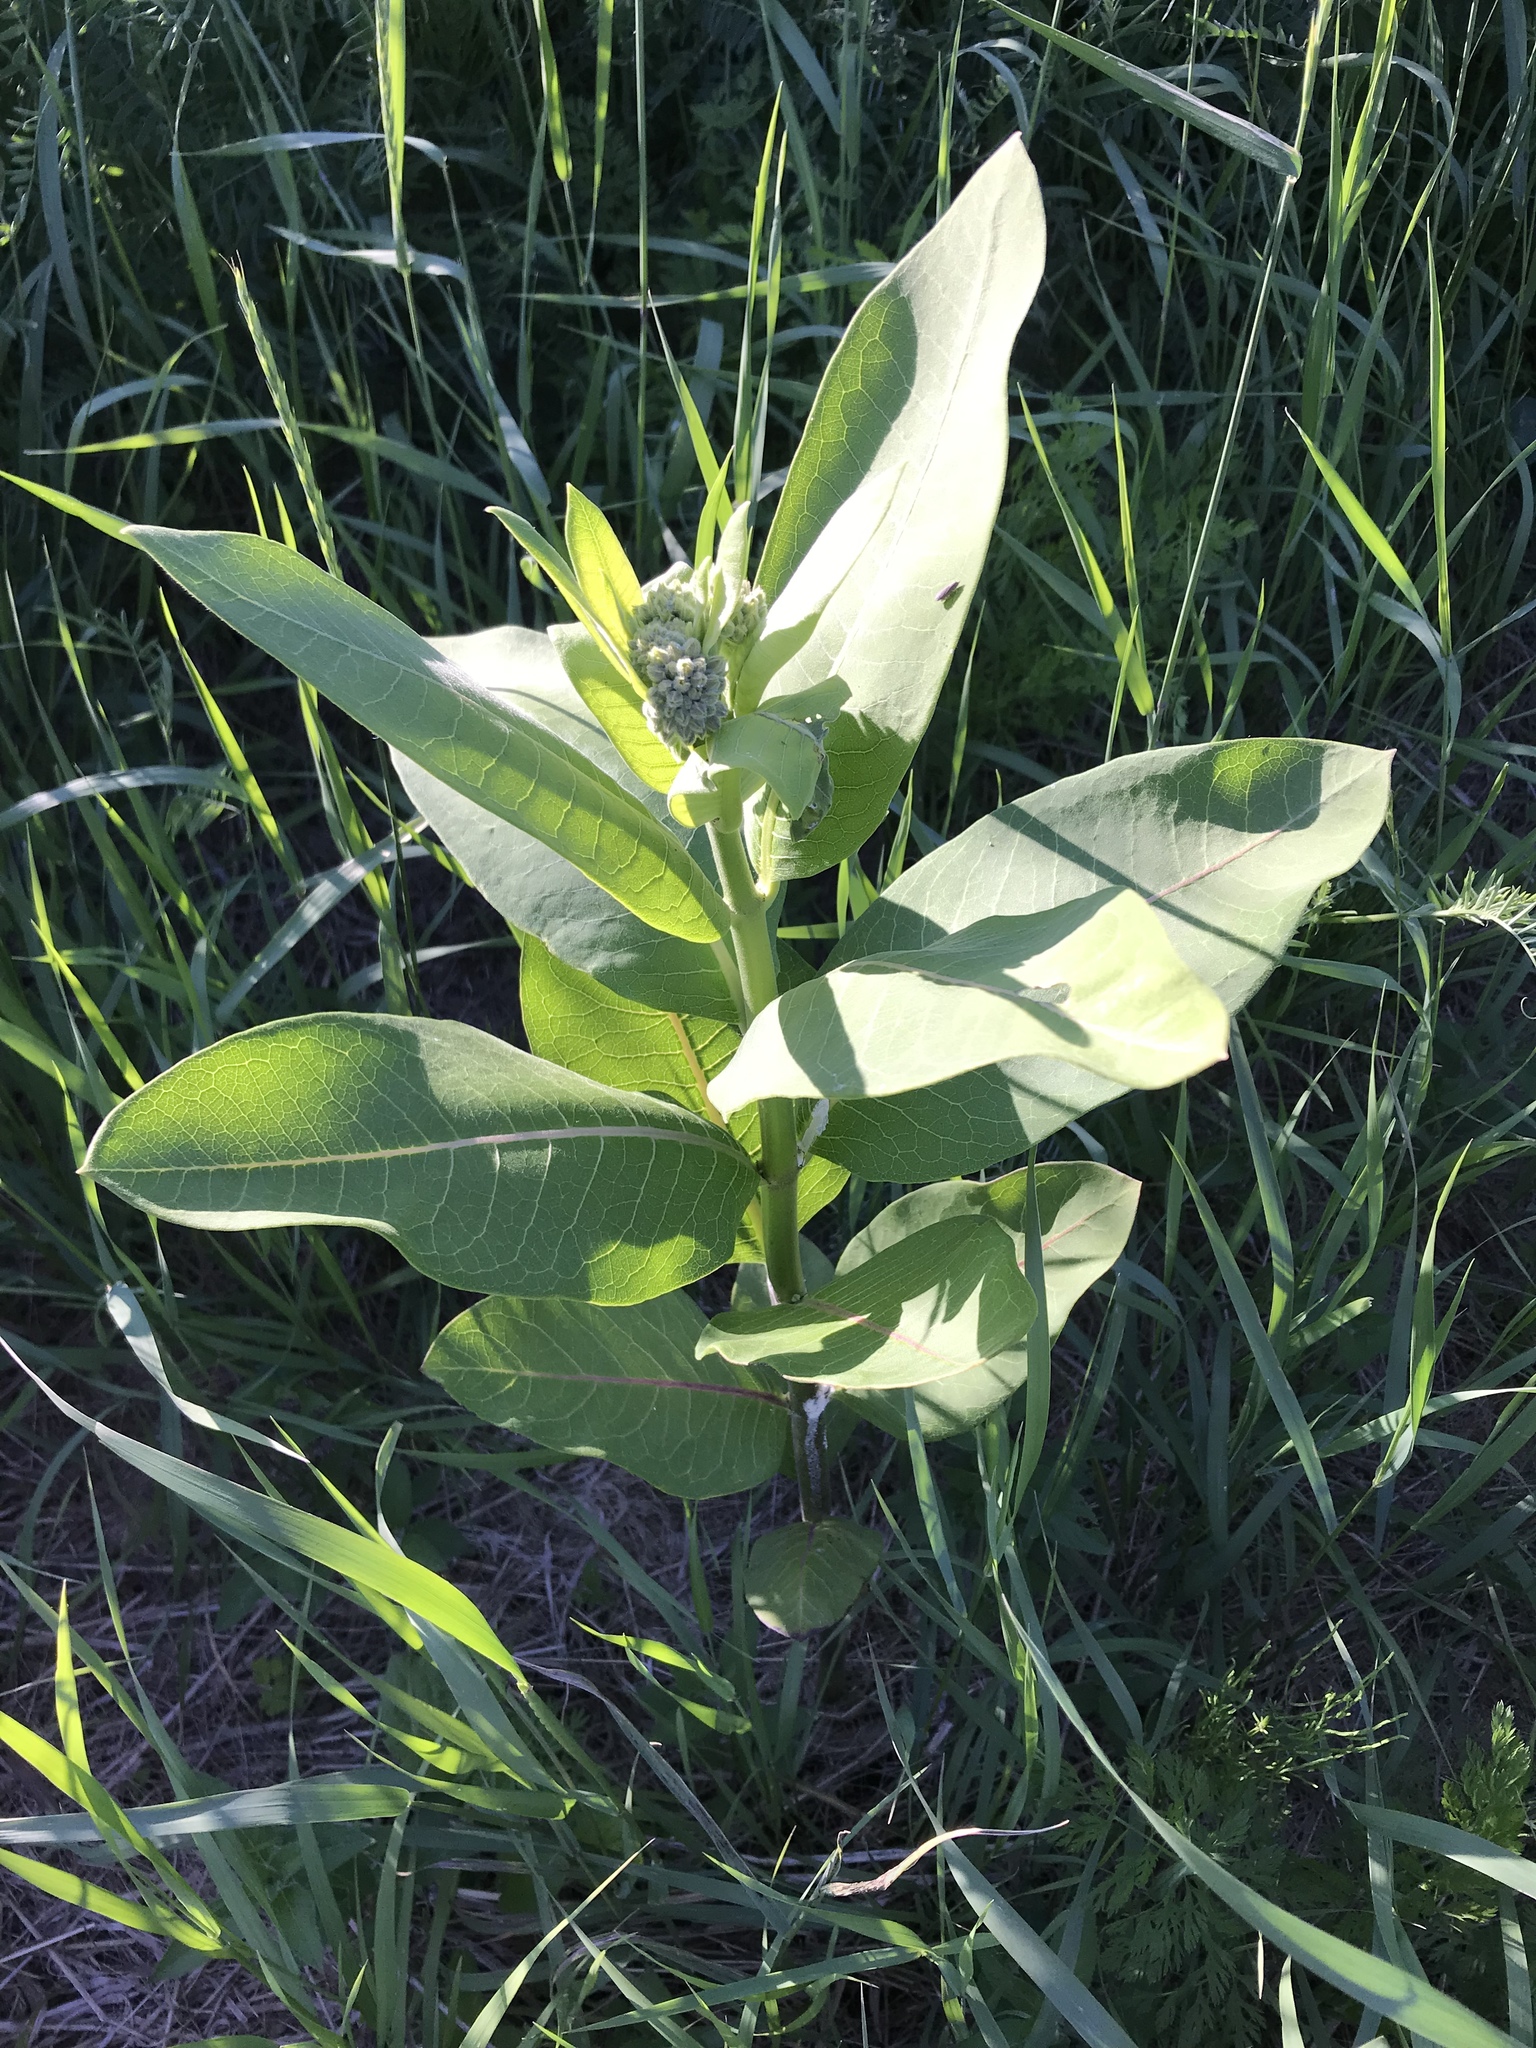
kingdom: Plantae
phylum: Tracheophyta
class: Magnoliopsida
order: Gentianales
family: Apocynaceae
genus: Asclepias
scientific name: Asclepias syriaca
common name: Common milkweed
